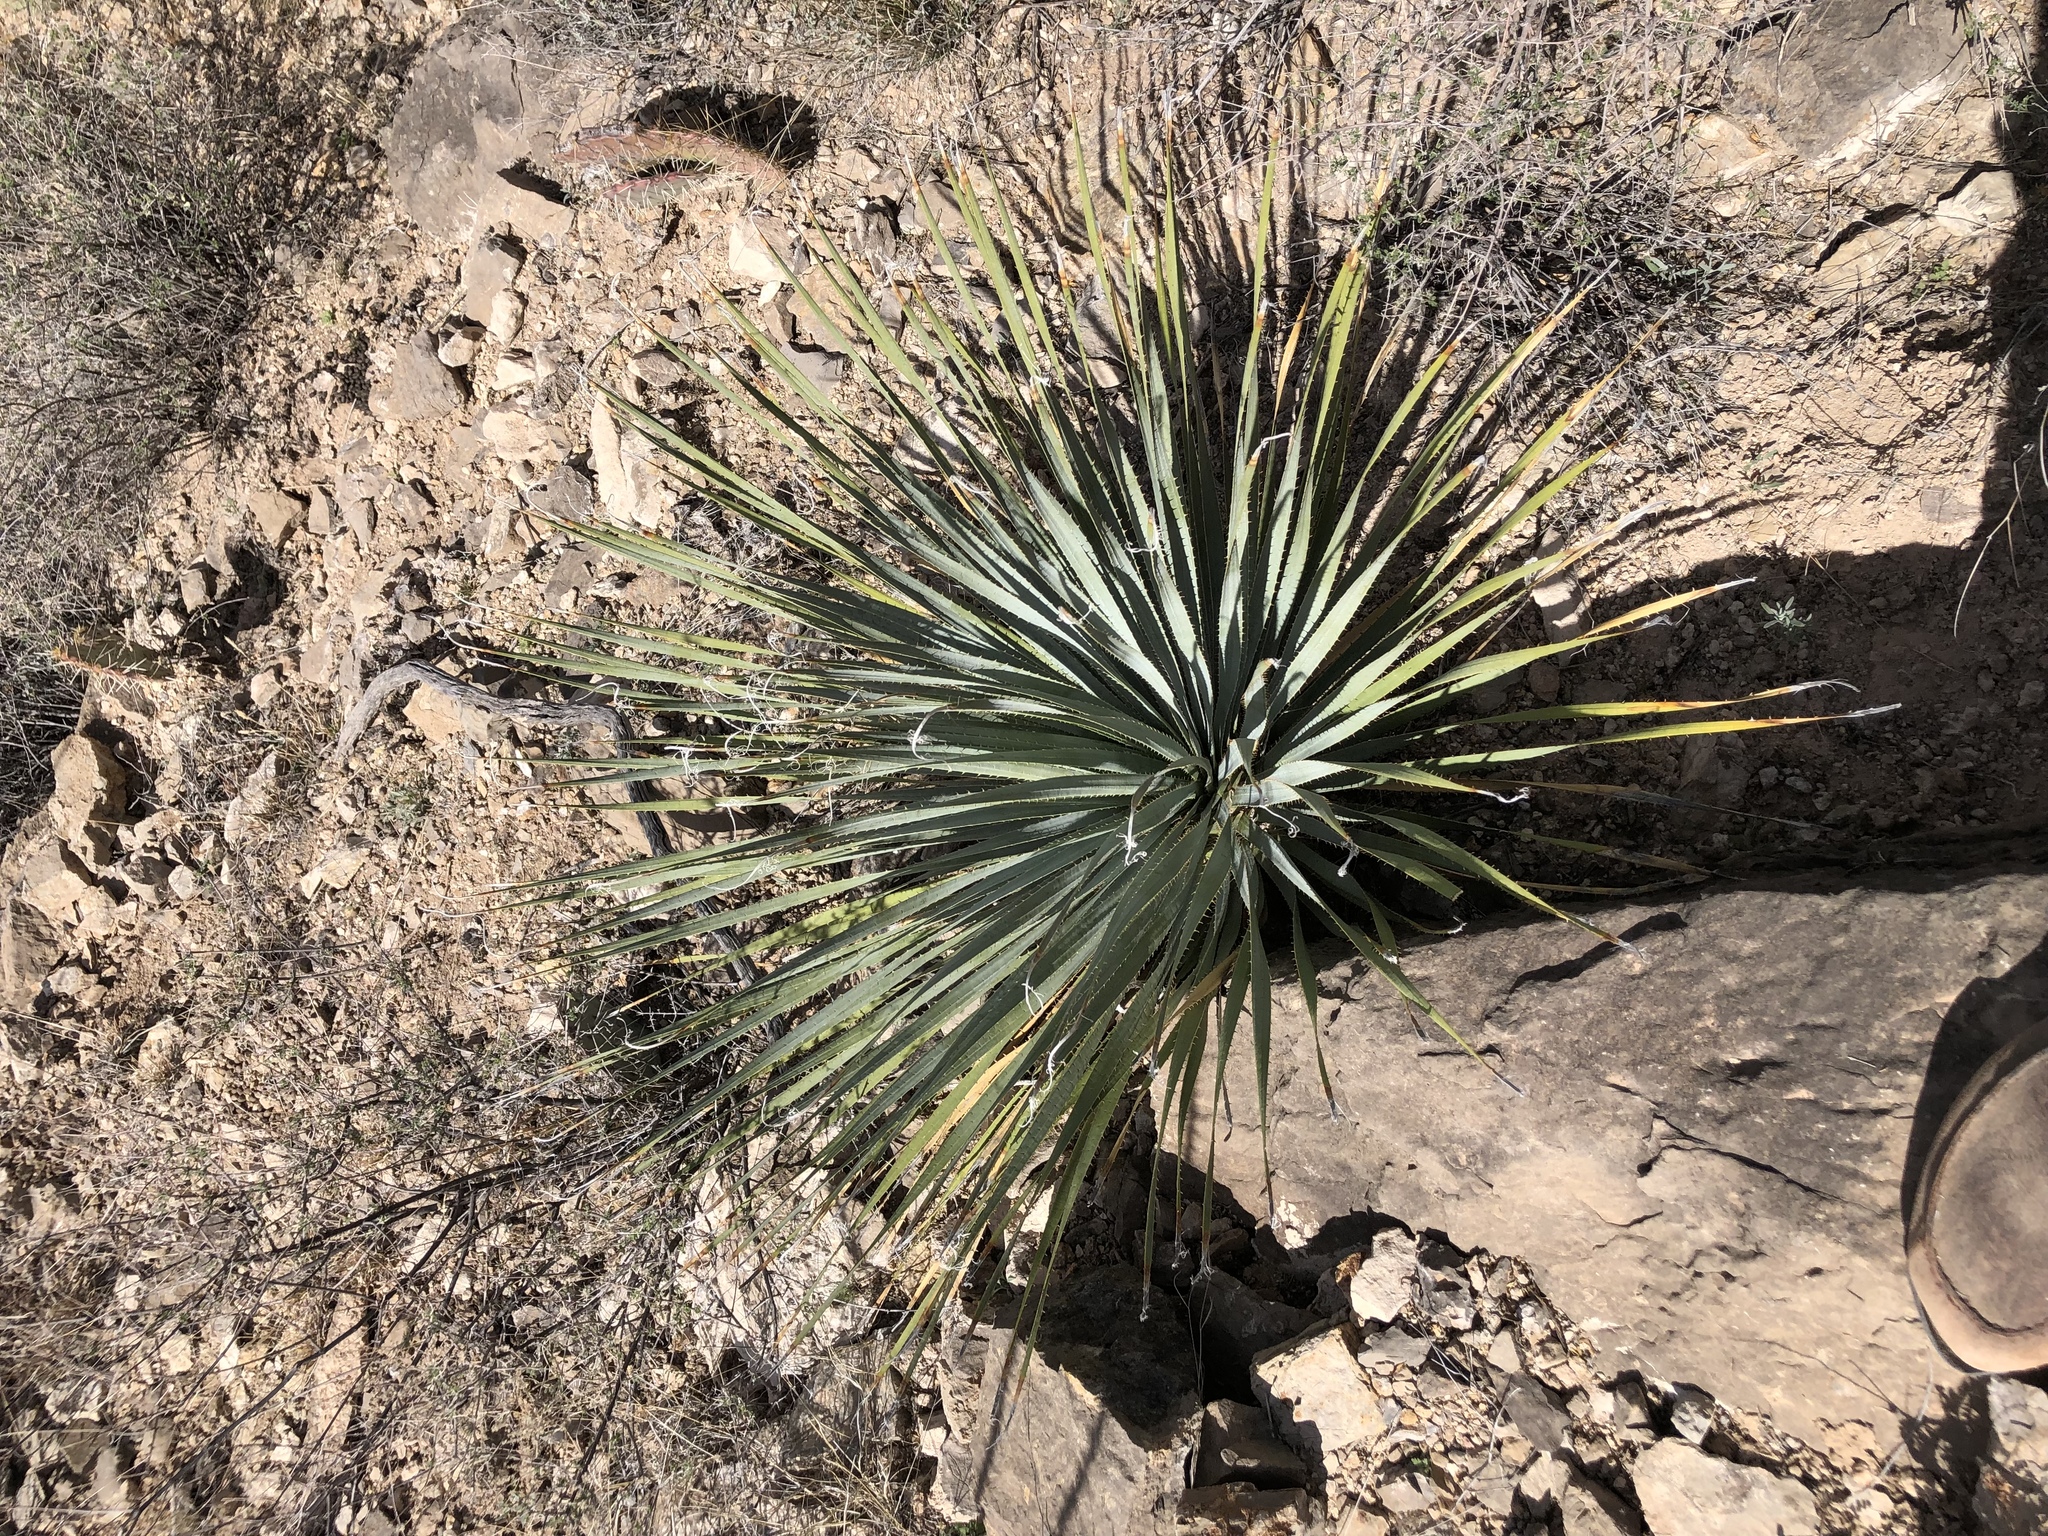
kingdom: Plantae
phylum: Tracheophyta
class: Liliopsida
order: Asparagales
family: Asparagaceae
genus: Dasylirion
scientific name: Dasylirion wheeleri
